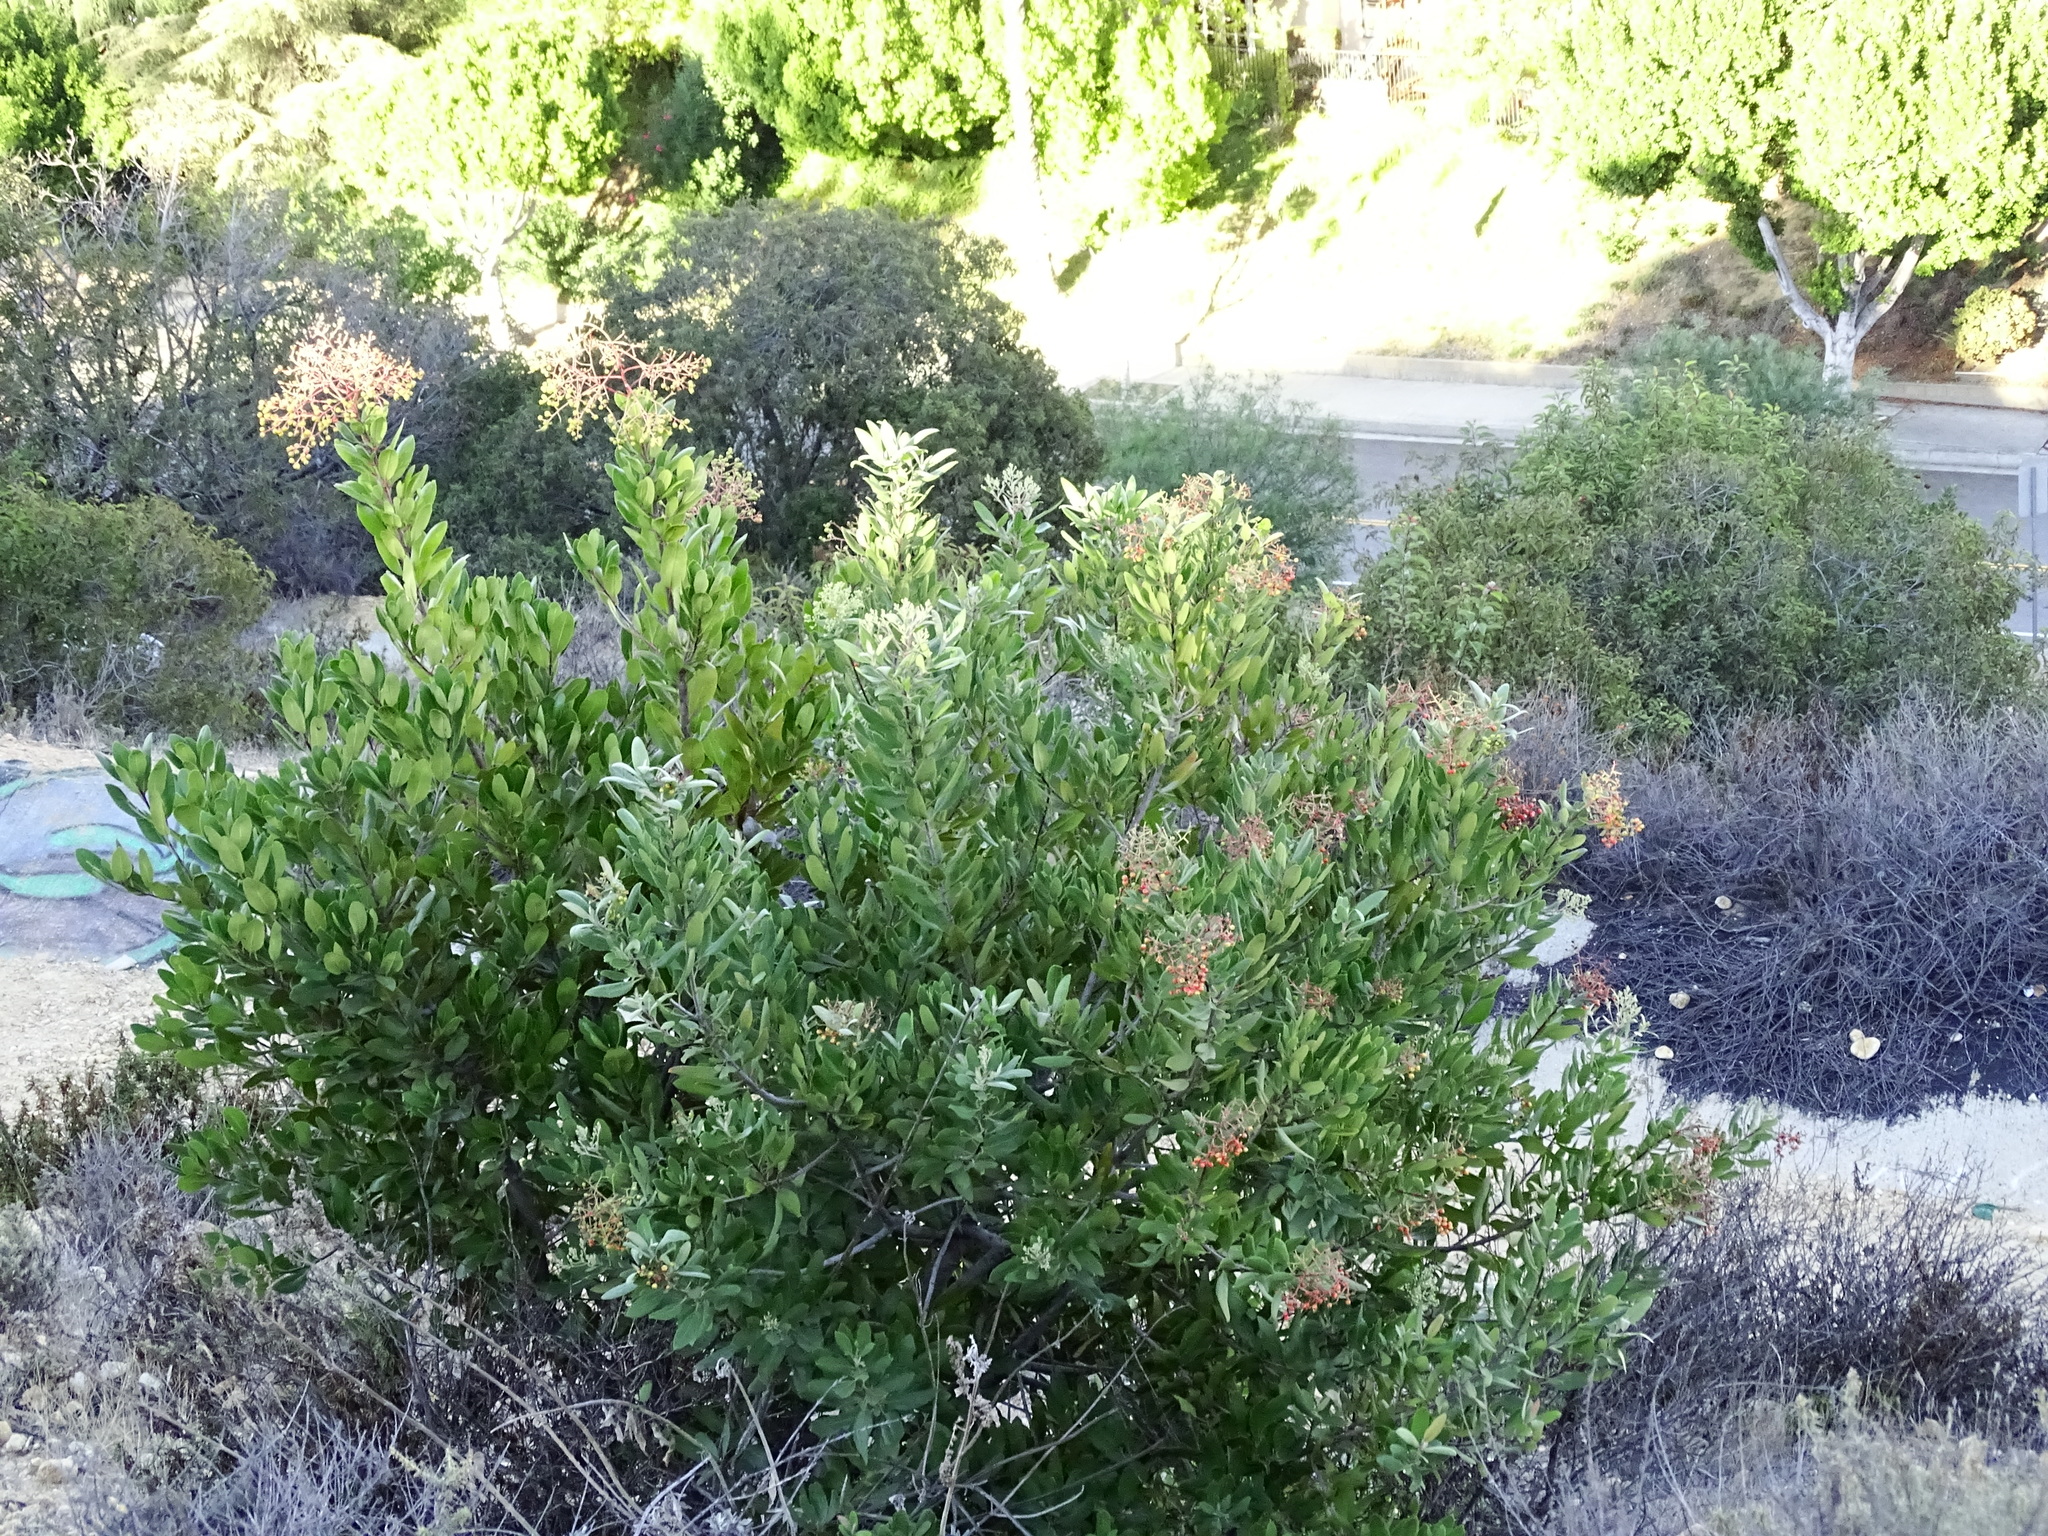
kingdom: Plantae
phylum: Tracheophyta
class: Magnoliopsida
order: Rosales
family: Rosaceae
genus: Heteromeles
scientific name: Heteromeles arbutifolia
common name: California-holly
